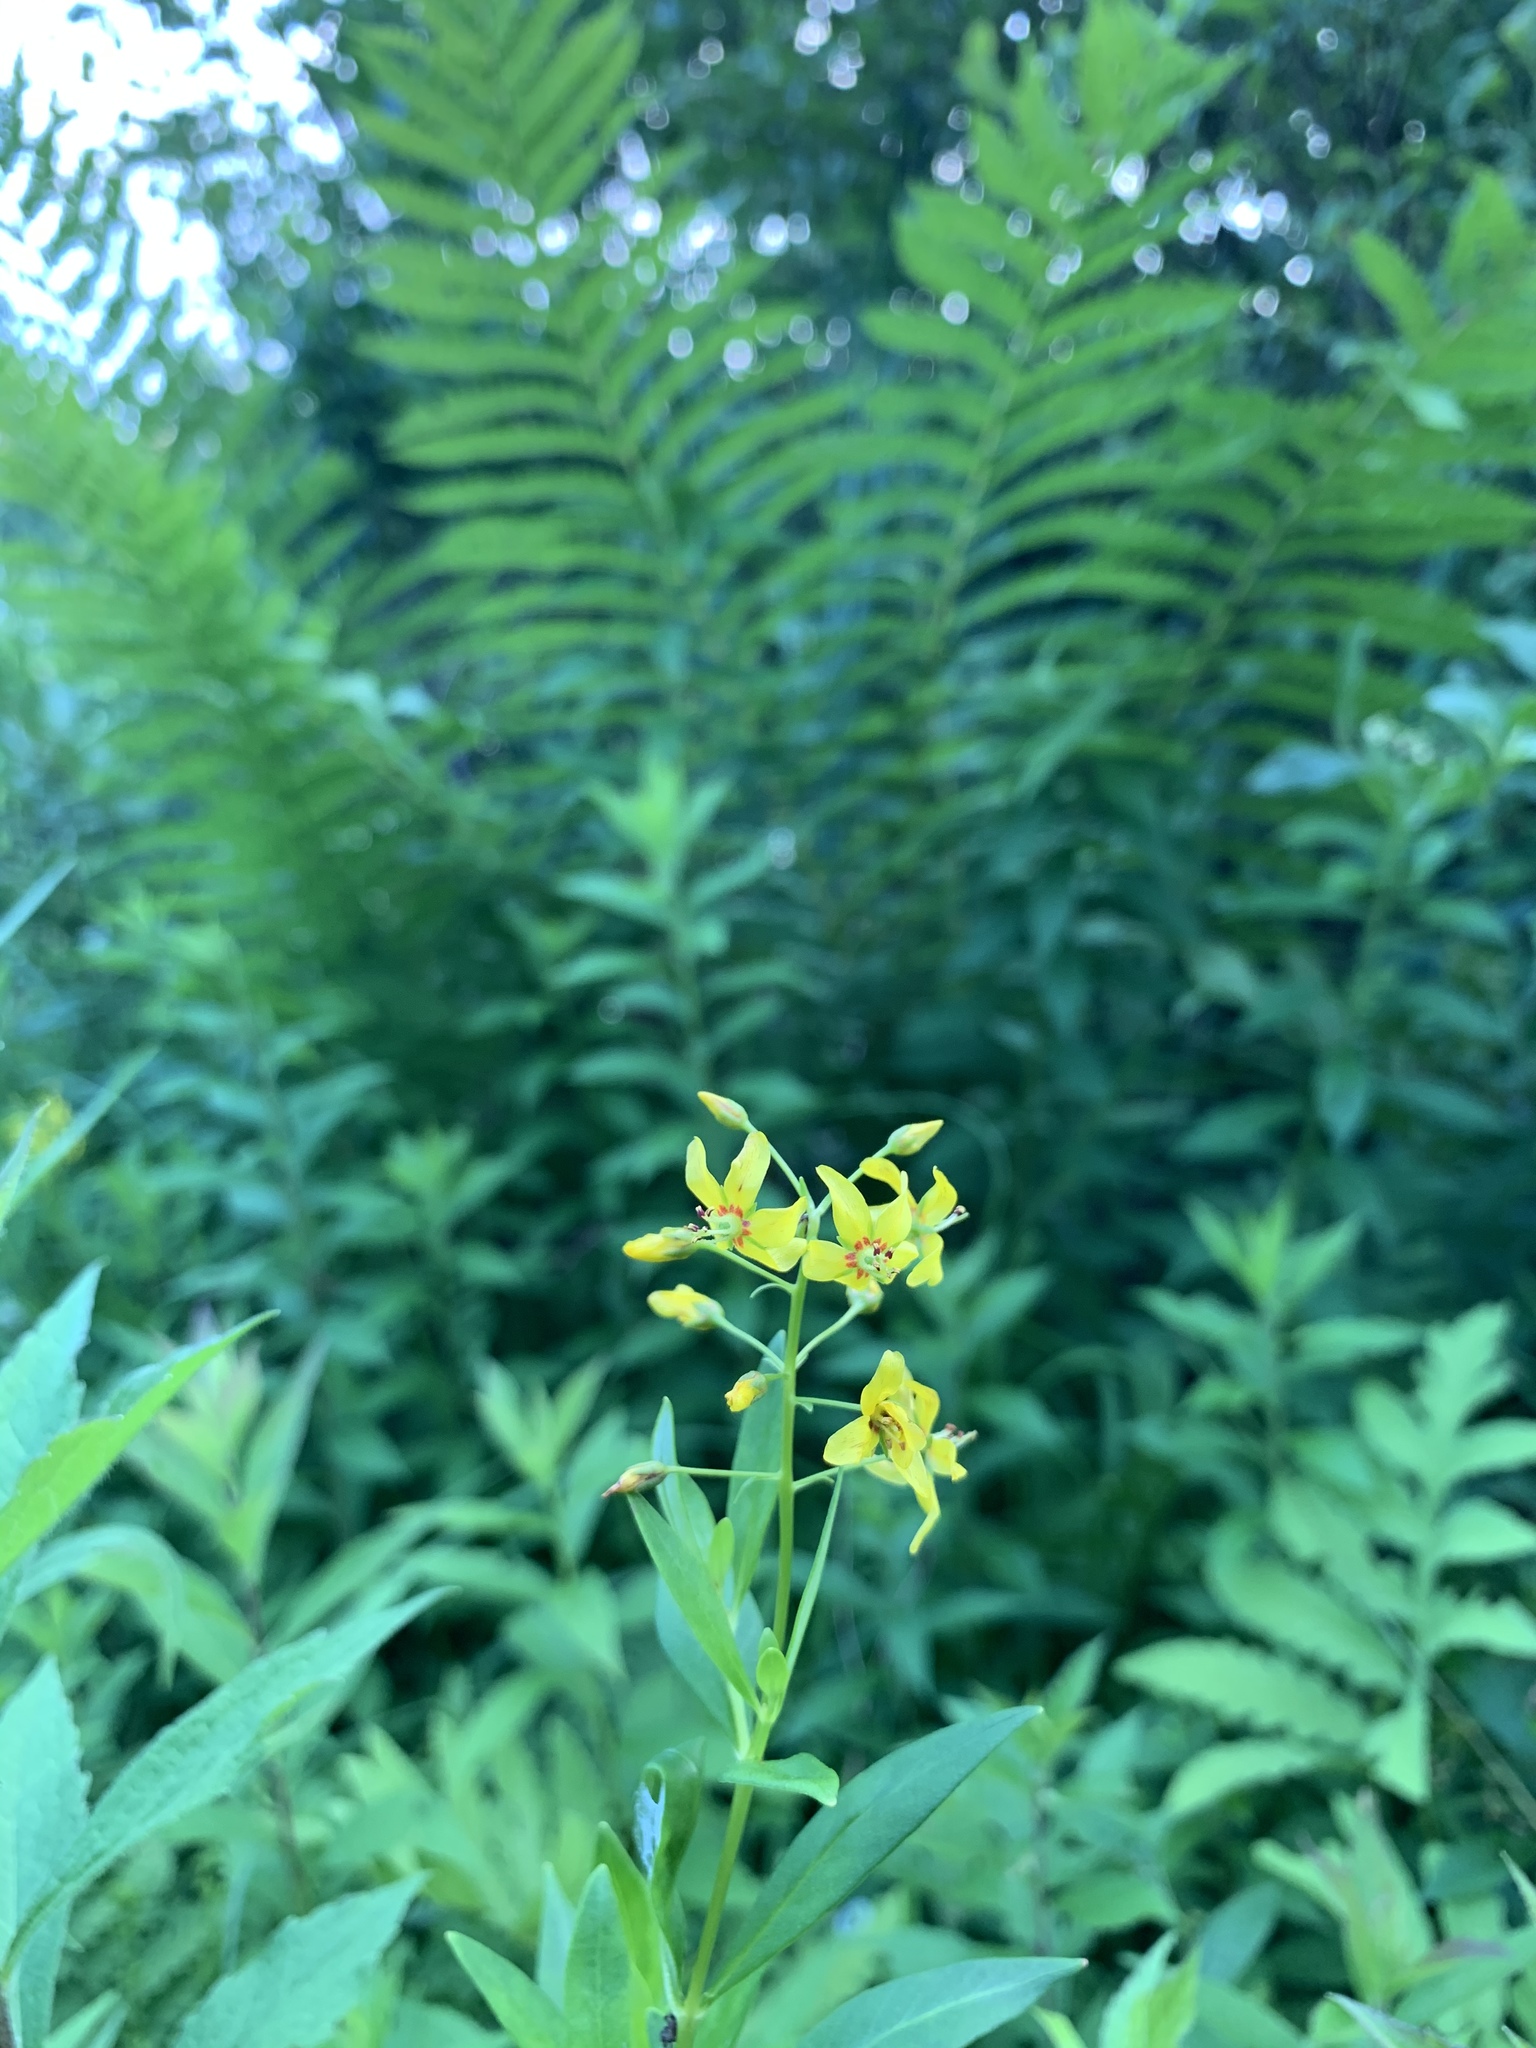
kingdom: Plantae
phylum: Tracheophyta
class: Magnoliopsida
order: Ericales
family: Primulaceae
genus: Lysimachia
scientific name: Lysimachia terrestris
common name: Lake loosestrife
